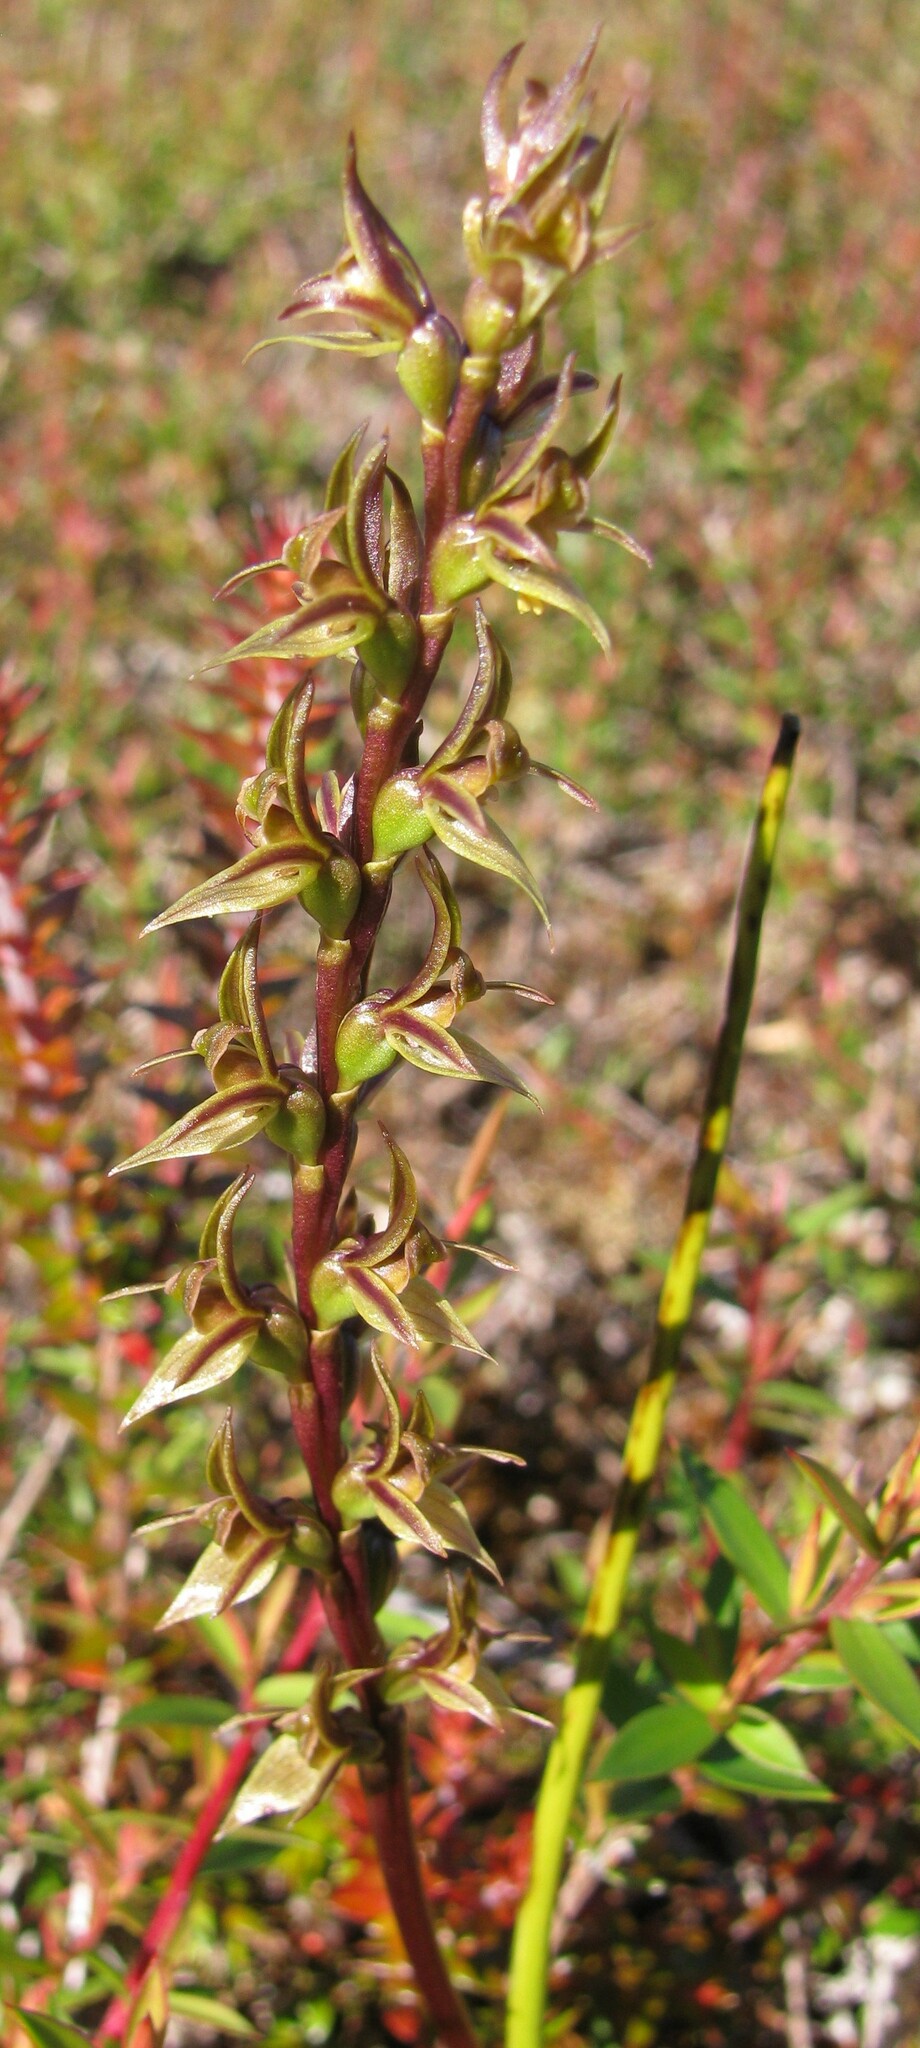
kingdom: Plantae
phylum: Tracheophyta
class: Liliopsida
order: Asparagales
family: Orchidaceae
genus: Prasophyllum
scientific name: Prasophyllum atratum
